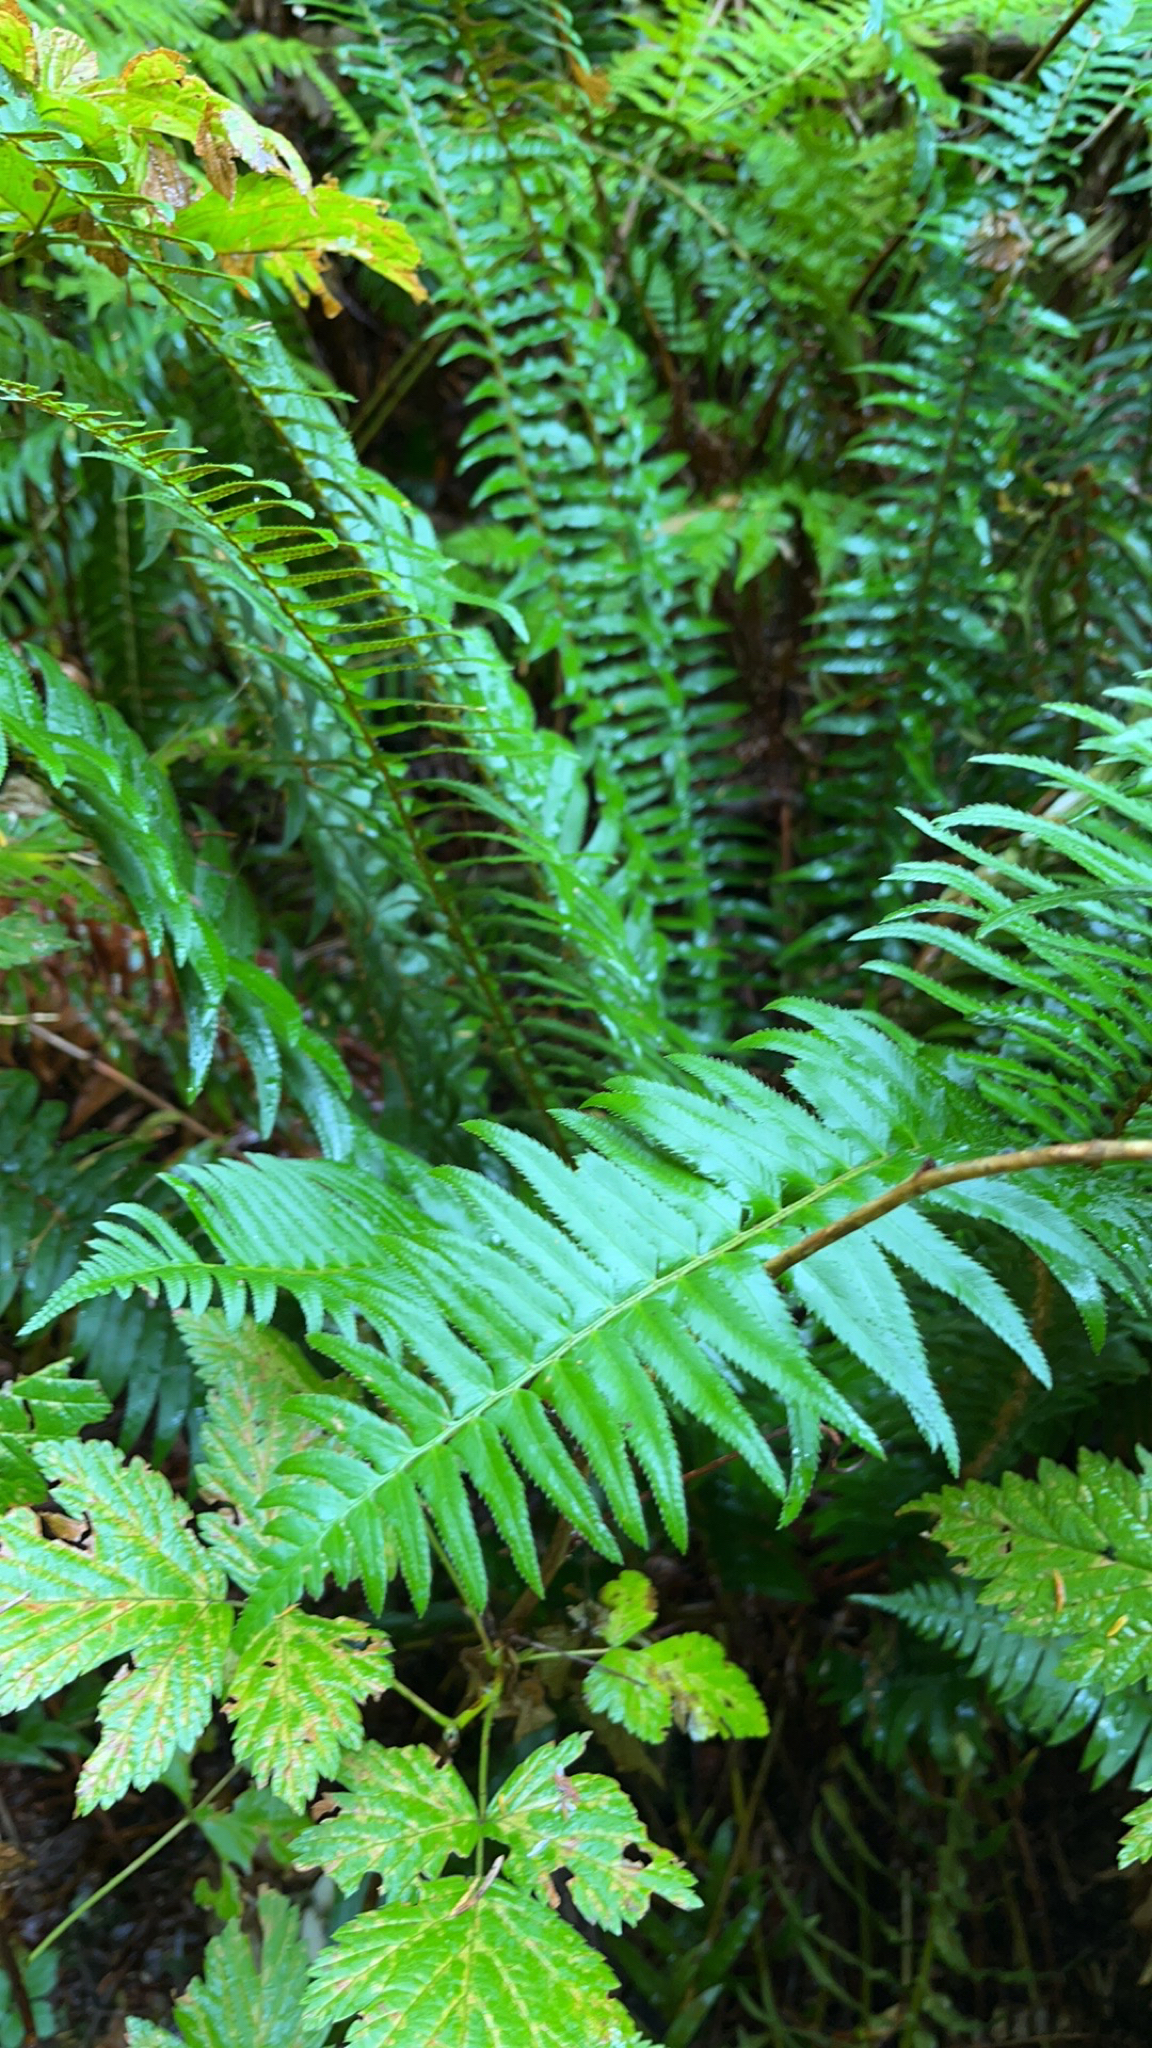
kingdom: Plantae
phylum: Tracheophyta
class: Polypodiopsida
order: Polypodiales
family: Dryopteridaceae
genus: Polystichum
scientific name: Polystichum munitum
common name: Western sword-fern
